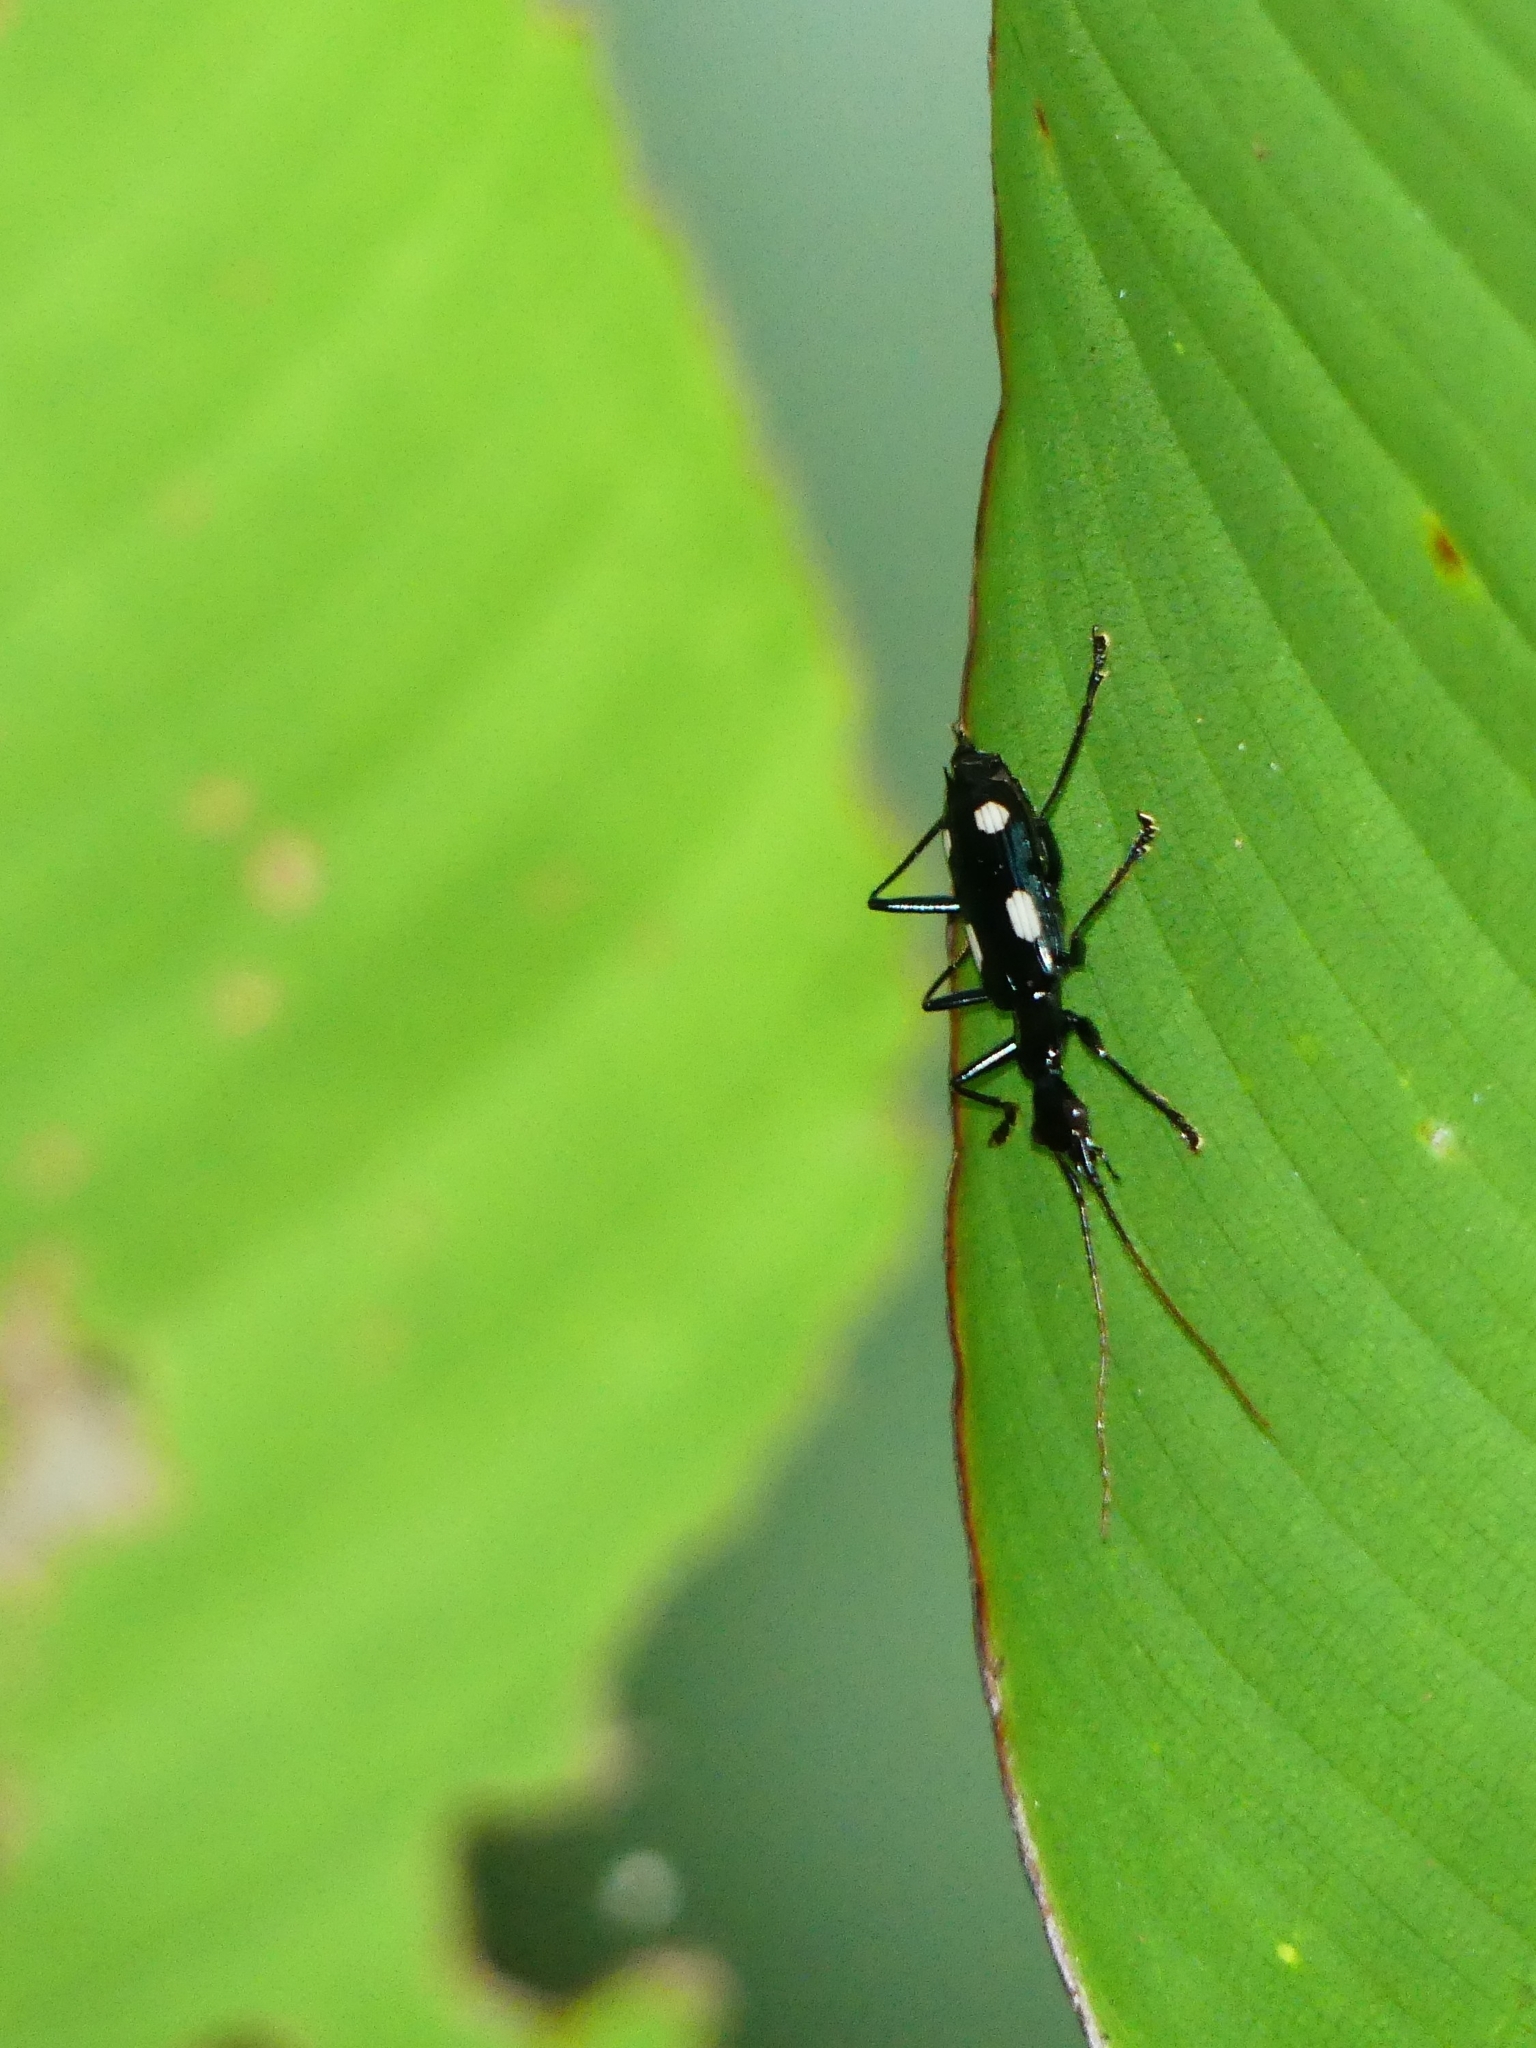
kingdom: Animalia
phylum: Arthropoda
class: Insecta
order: Coleoptera
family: Carabidae
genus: Calophaena
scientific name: Calophaena acuminata
